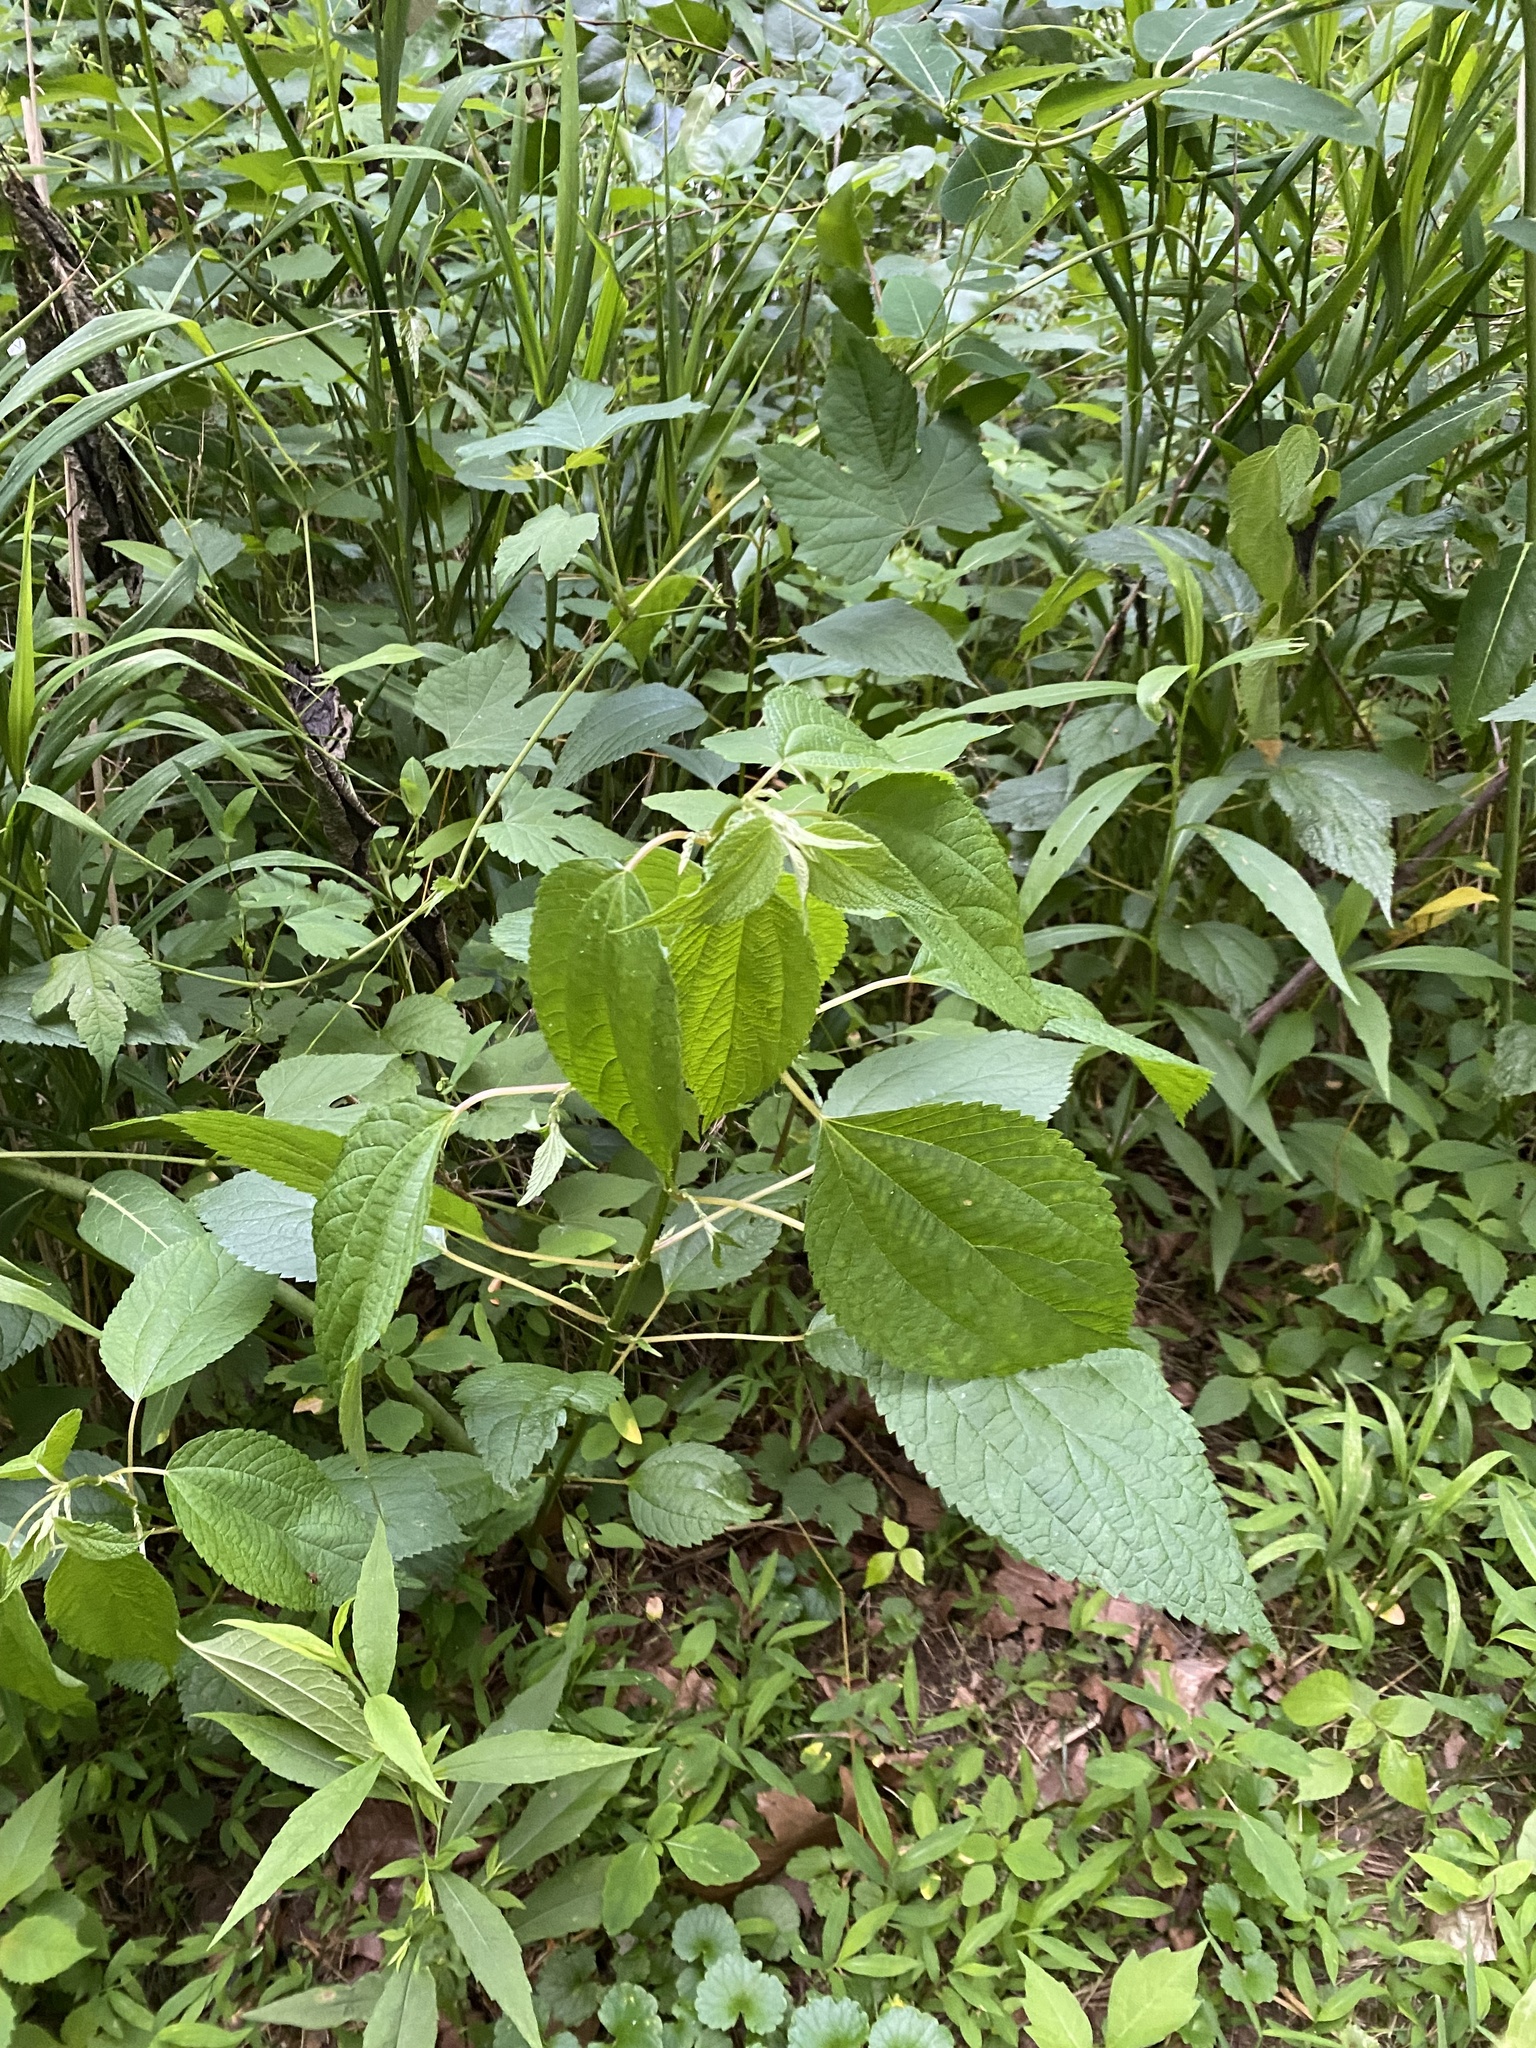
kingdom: Plantae
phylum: Tracheophyta
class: Magnoliopsida
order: Rosales
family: Urticaceae
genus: Boehmeria
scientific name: Boehmeria cylindrica
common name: Bog-hemp
